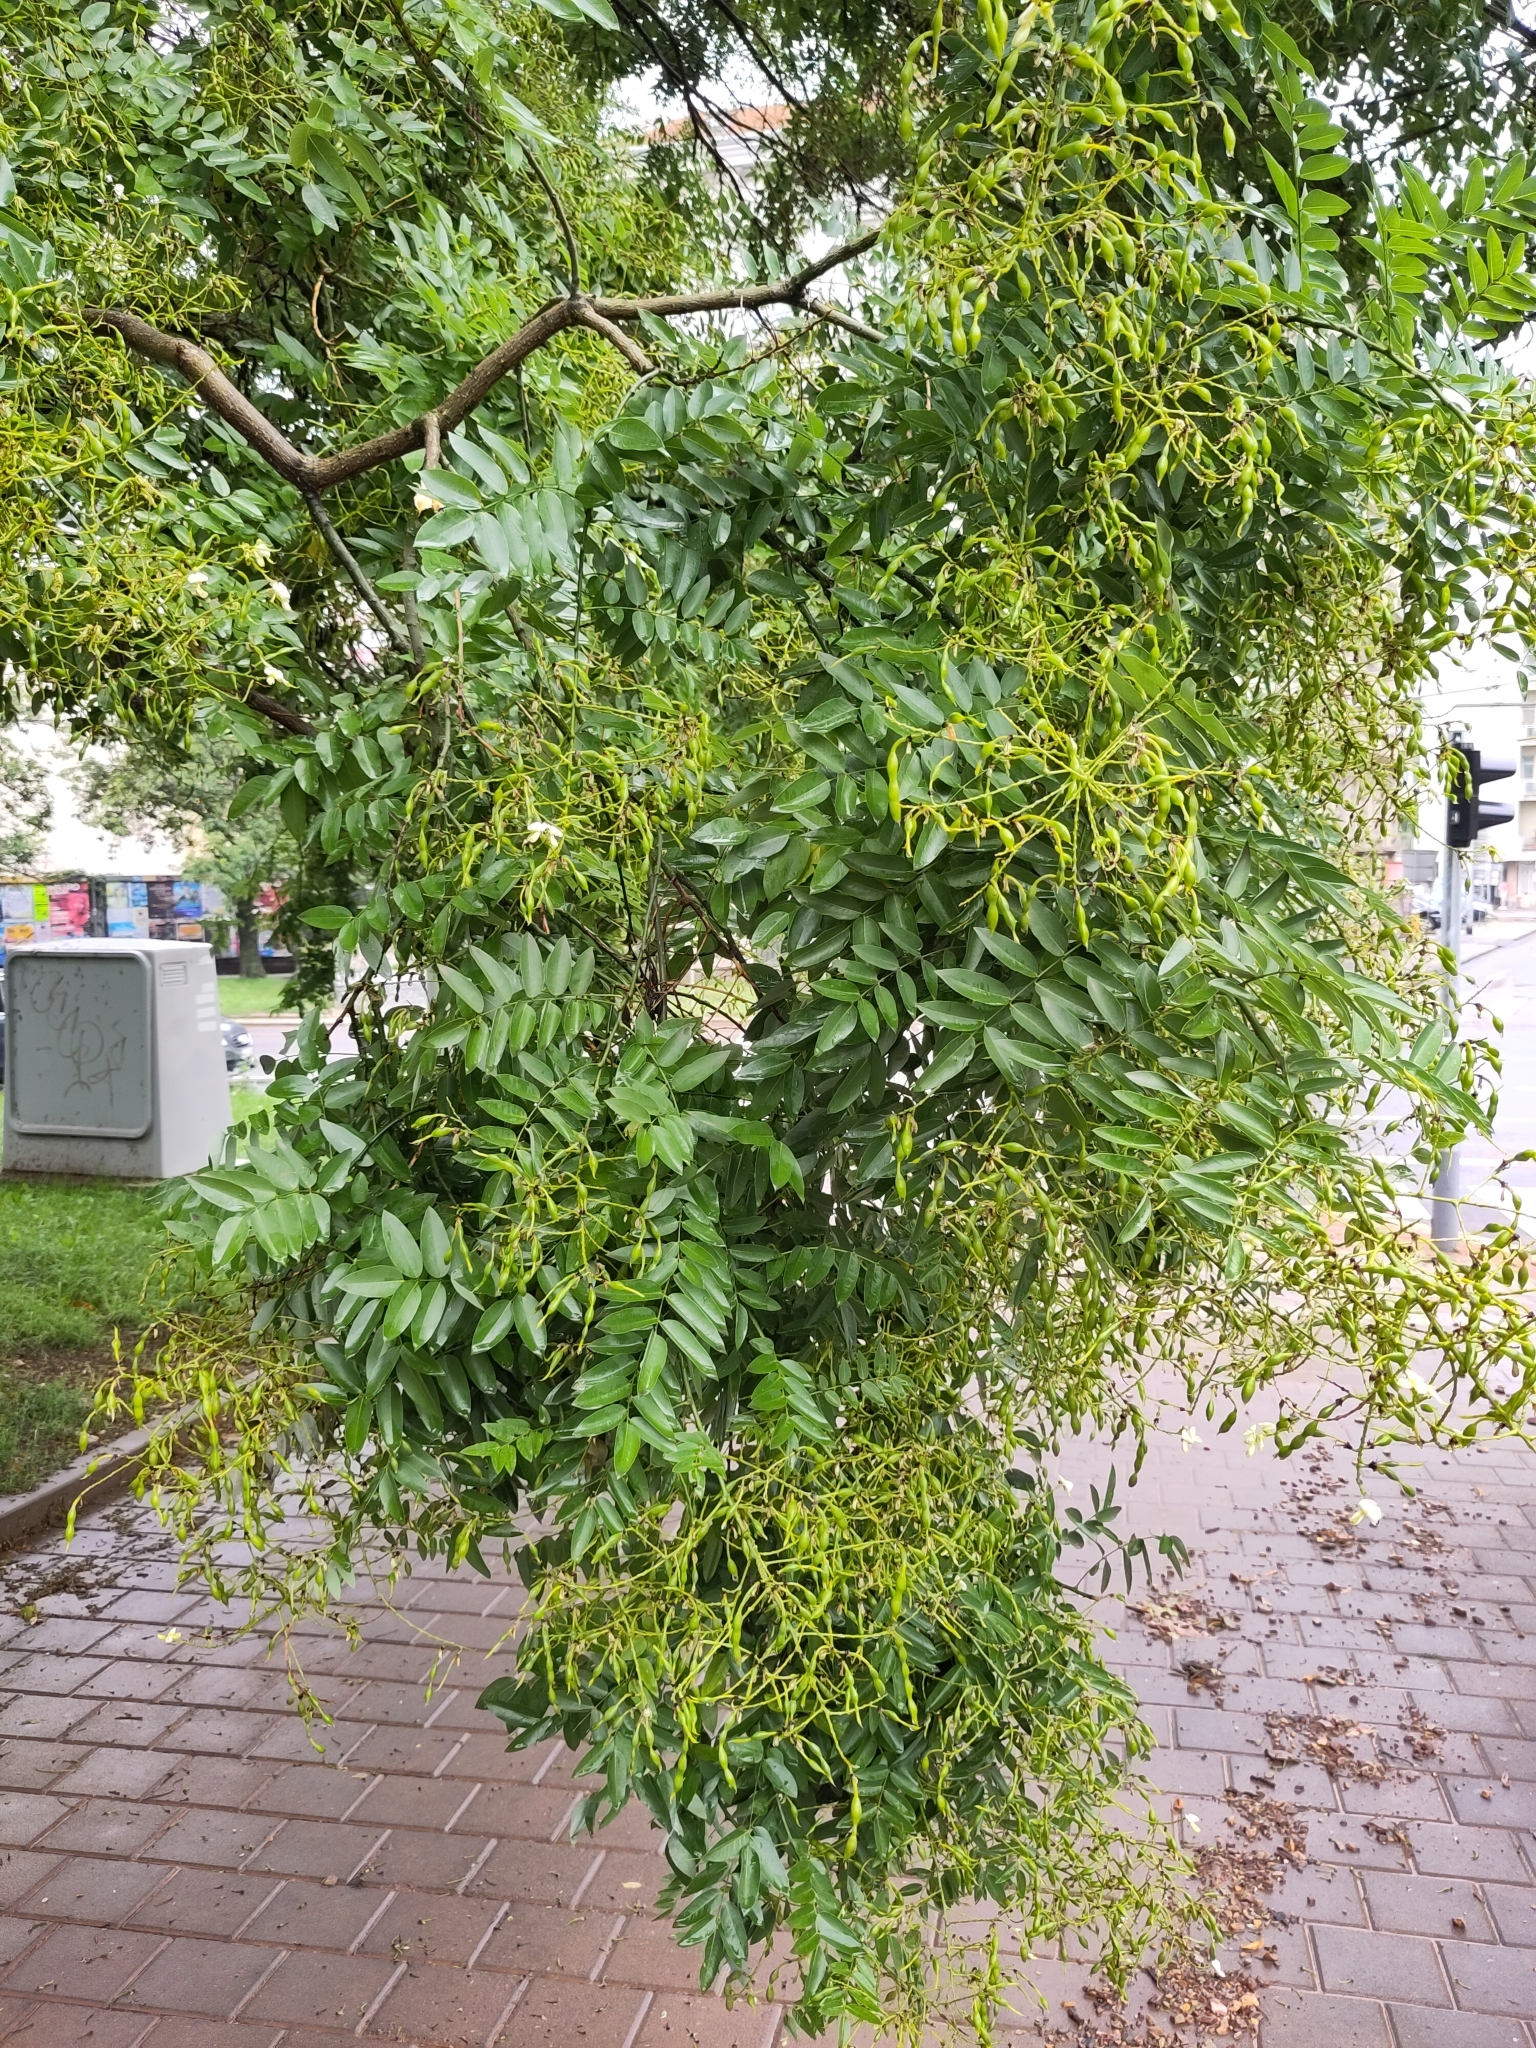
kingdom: Plantae
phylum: Tracheophyta
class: Magnoliopsida
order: Fabales
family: Fabaceae
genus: Styphnolobium
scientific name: Styphnolobium japonicum
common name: Chinese scholartree
